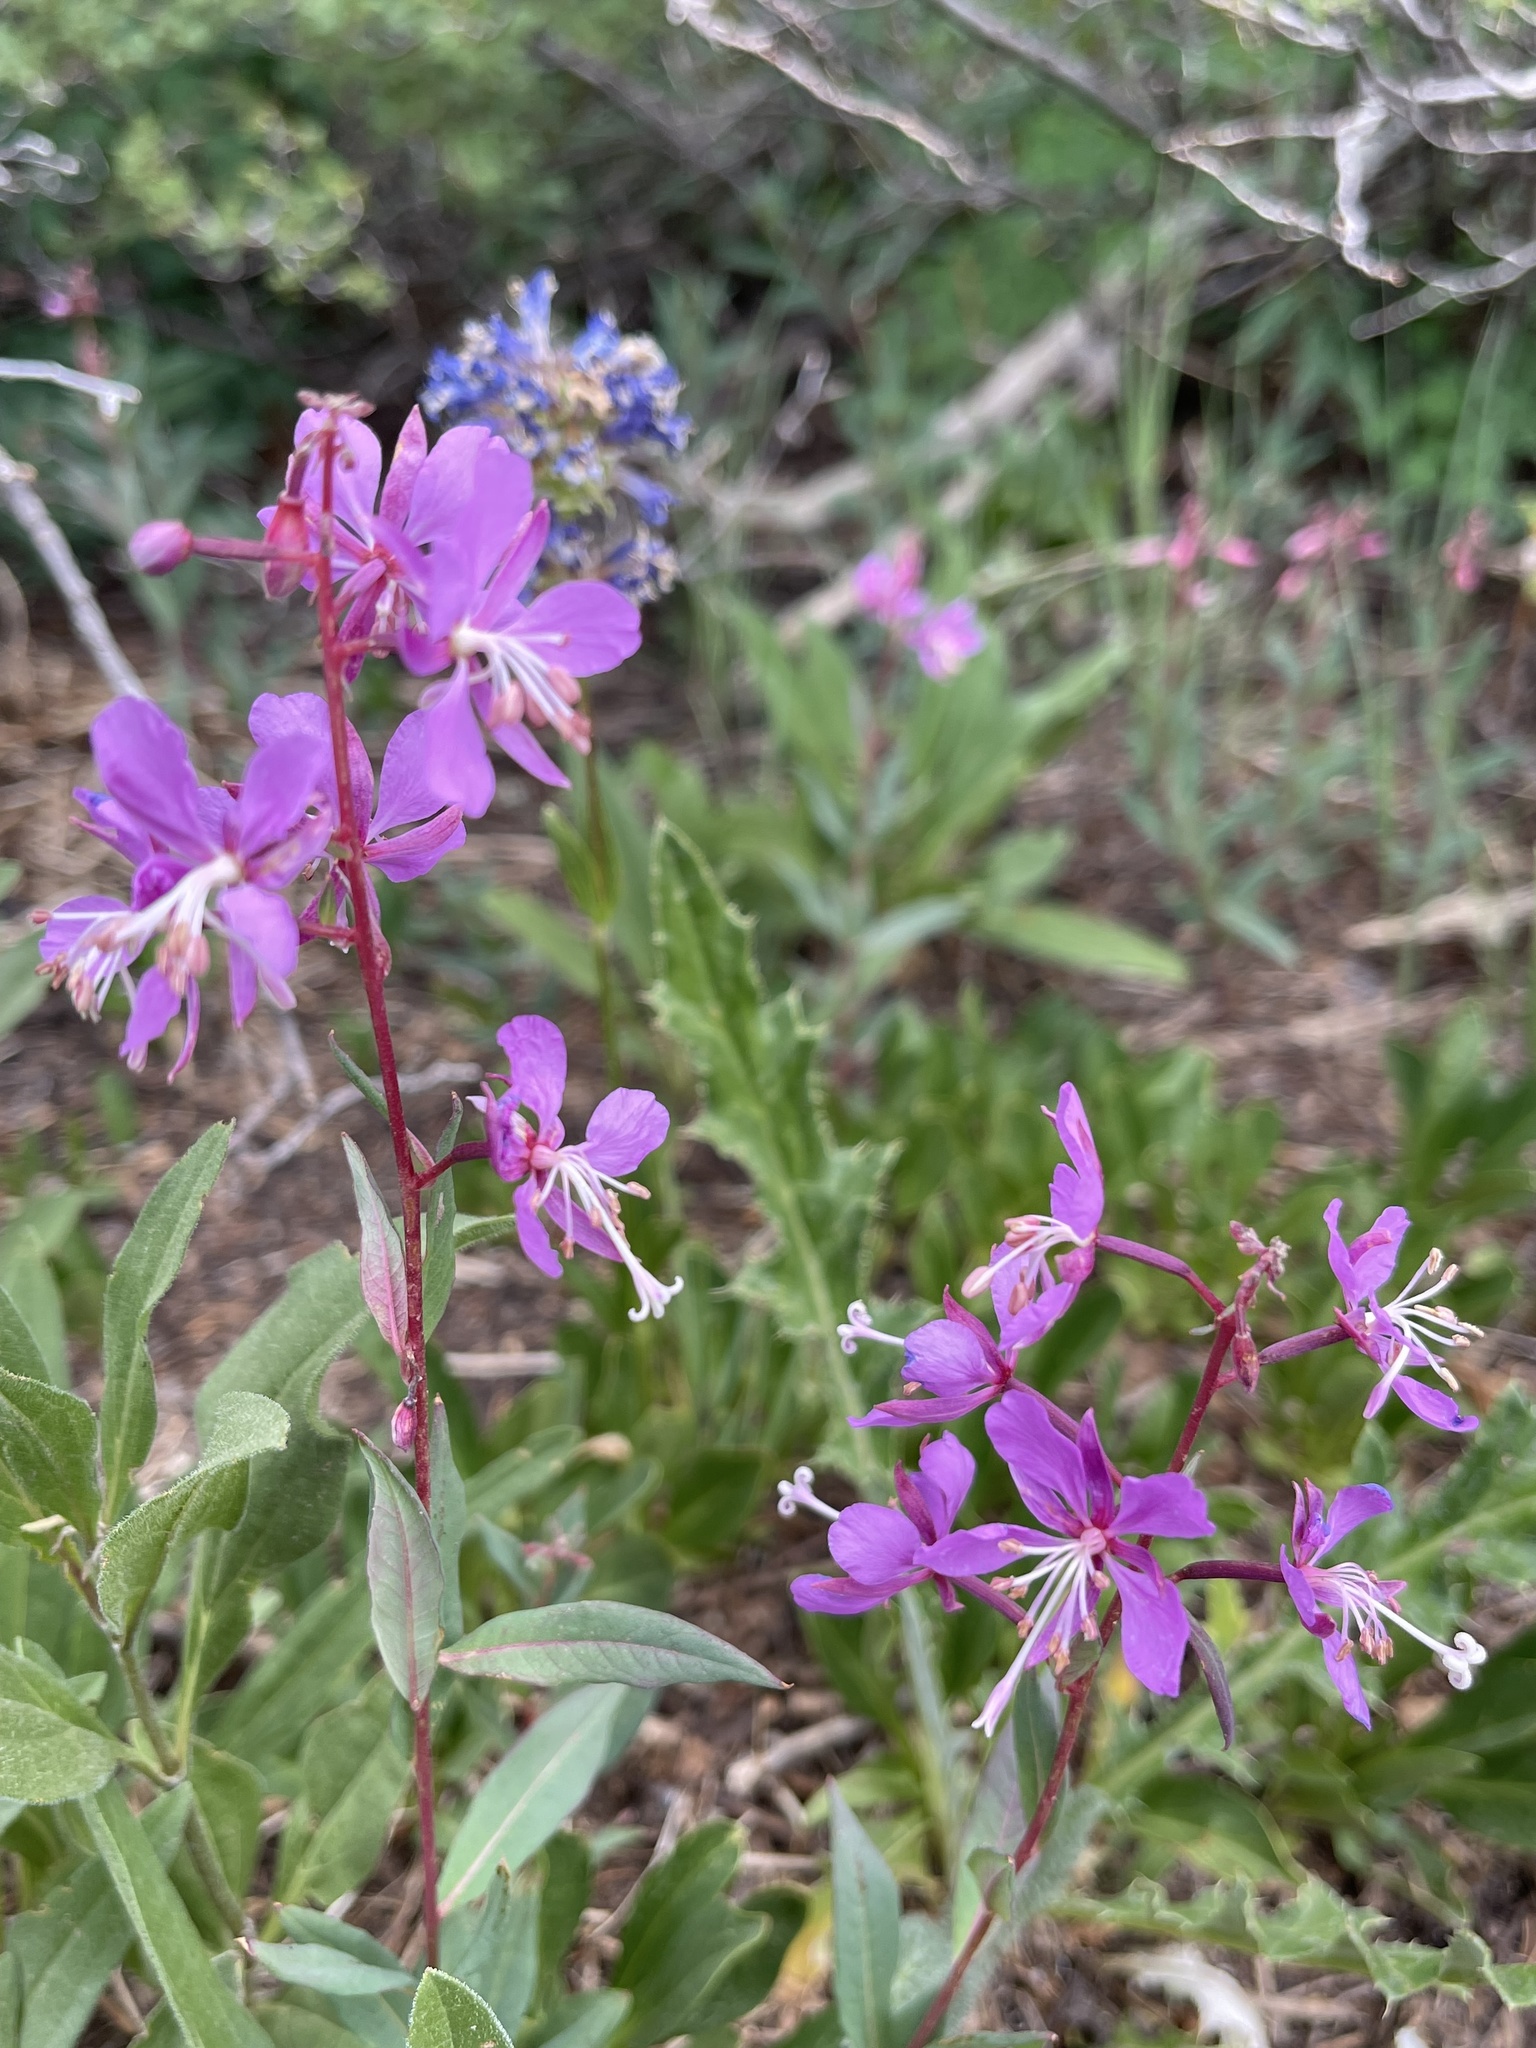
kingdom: Plantae
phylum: Tracheophyta
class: Magnoliopsida
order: Myrtales
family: Onagraceae
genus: Chamaenerion
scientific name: Chamaenerion angustifolium
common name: Fireweed
